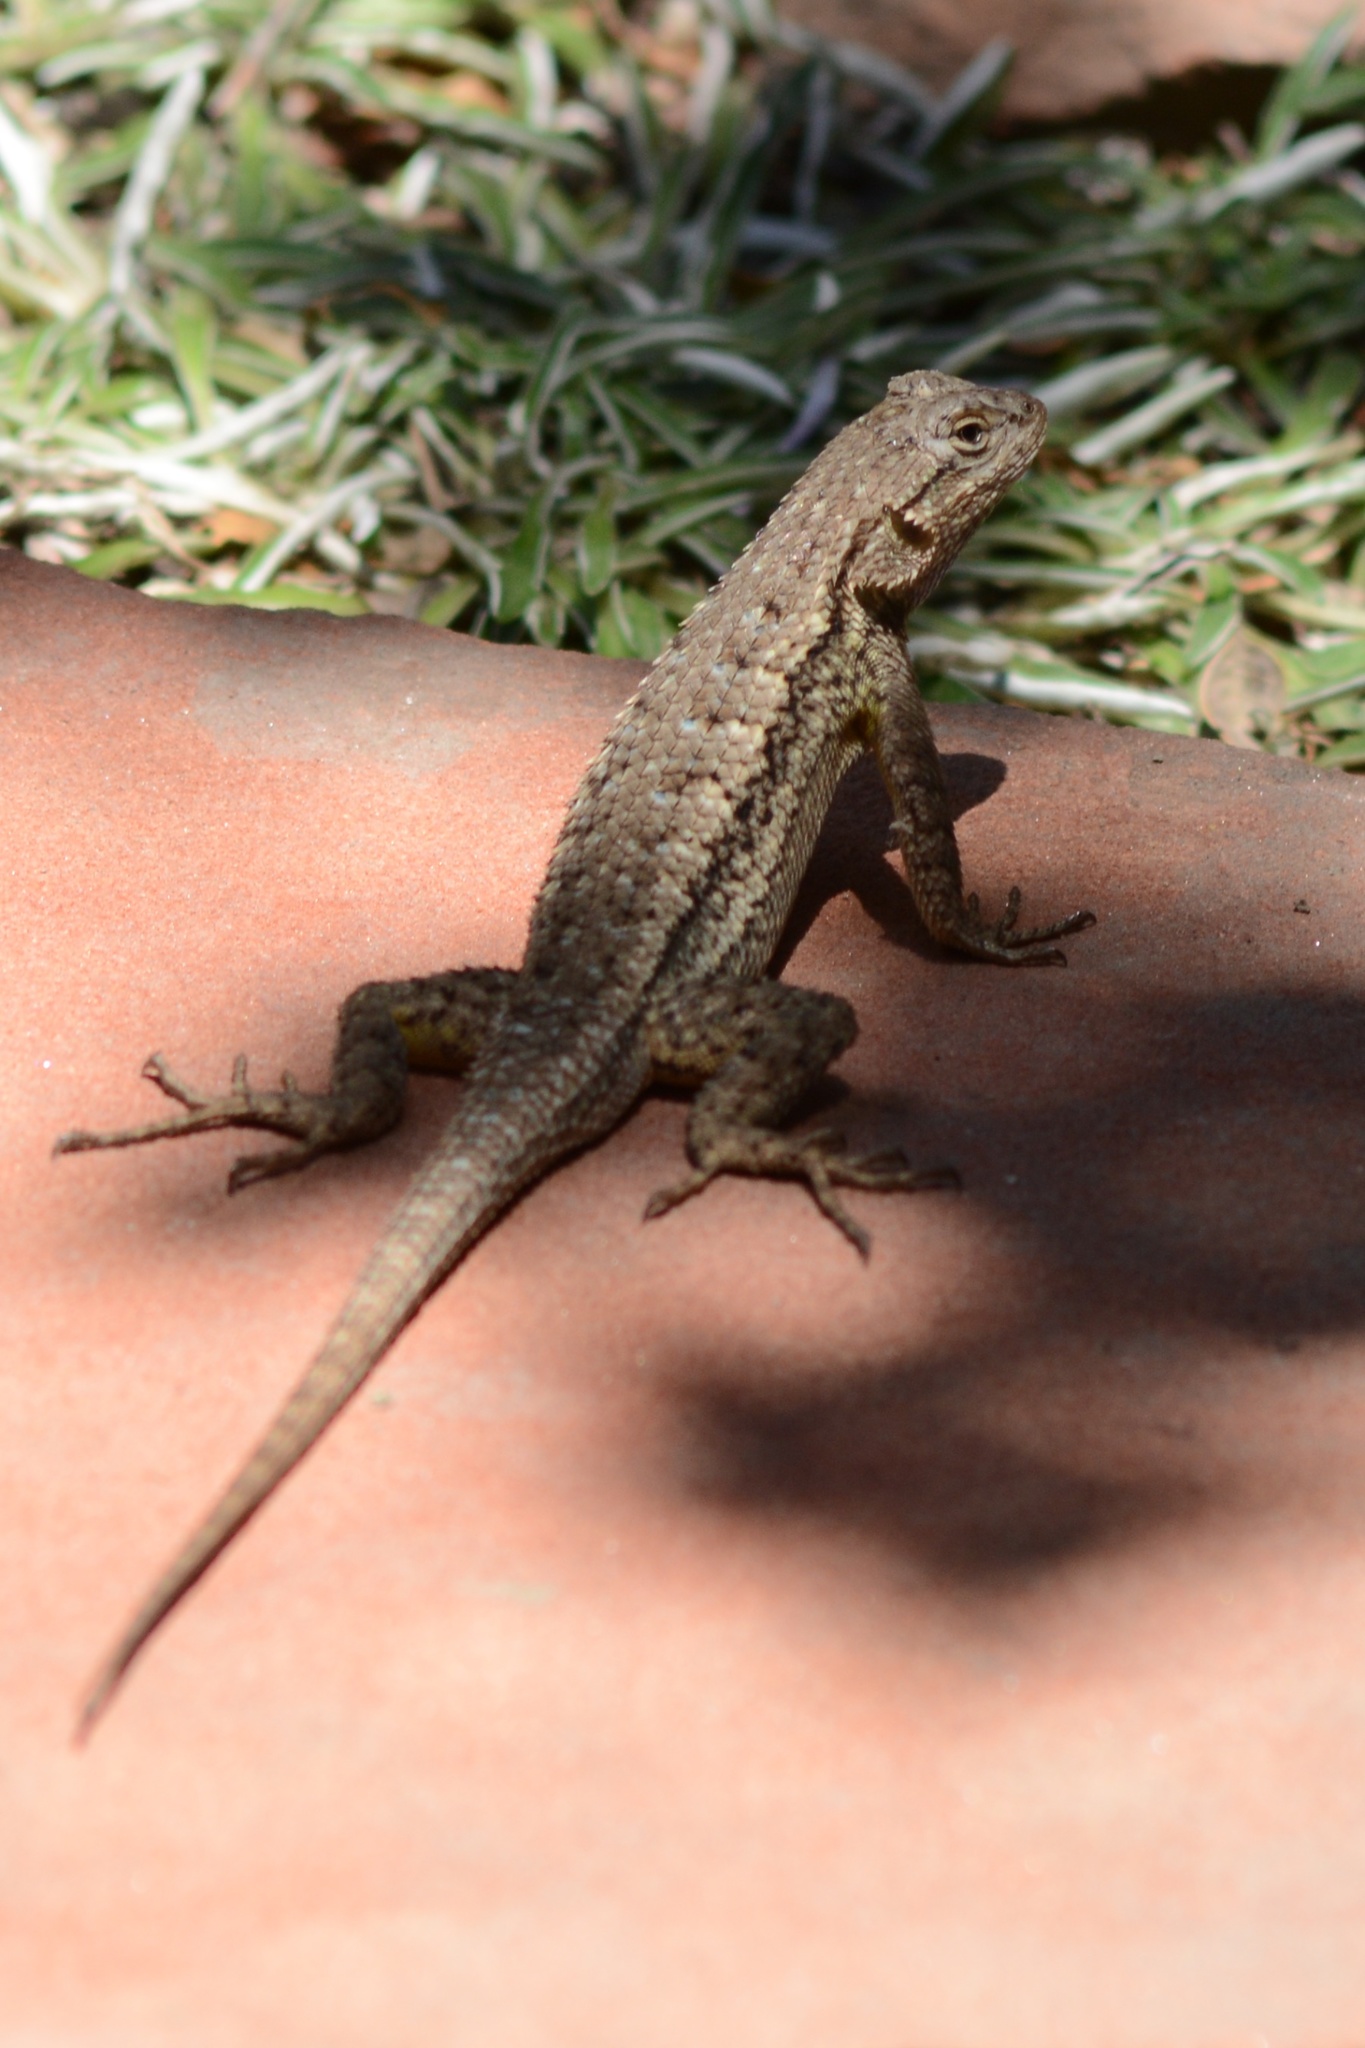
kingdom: Animalia
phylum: Chordata
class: Squamata
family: Phrynosomatidae
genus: Sceloporus
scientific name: Sceloporus occidentalis
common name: Western fence lizard
